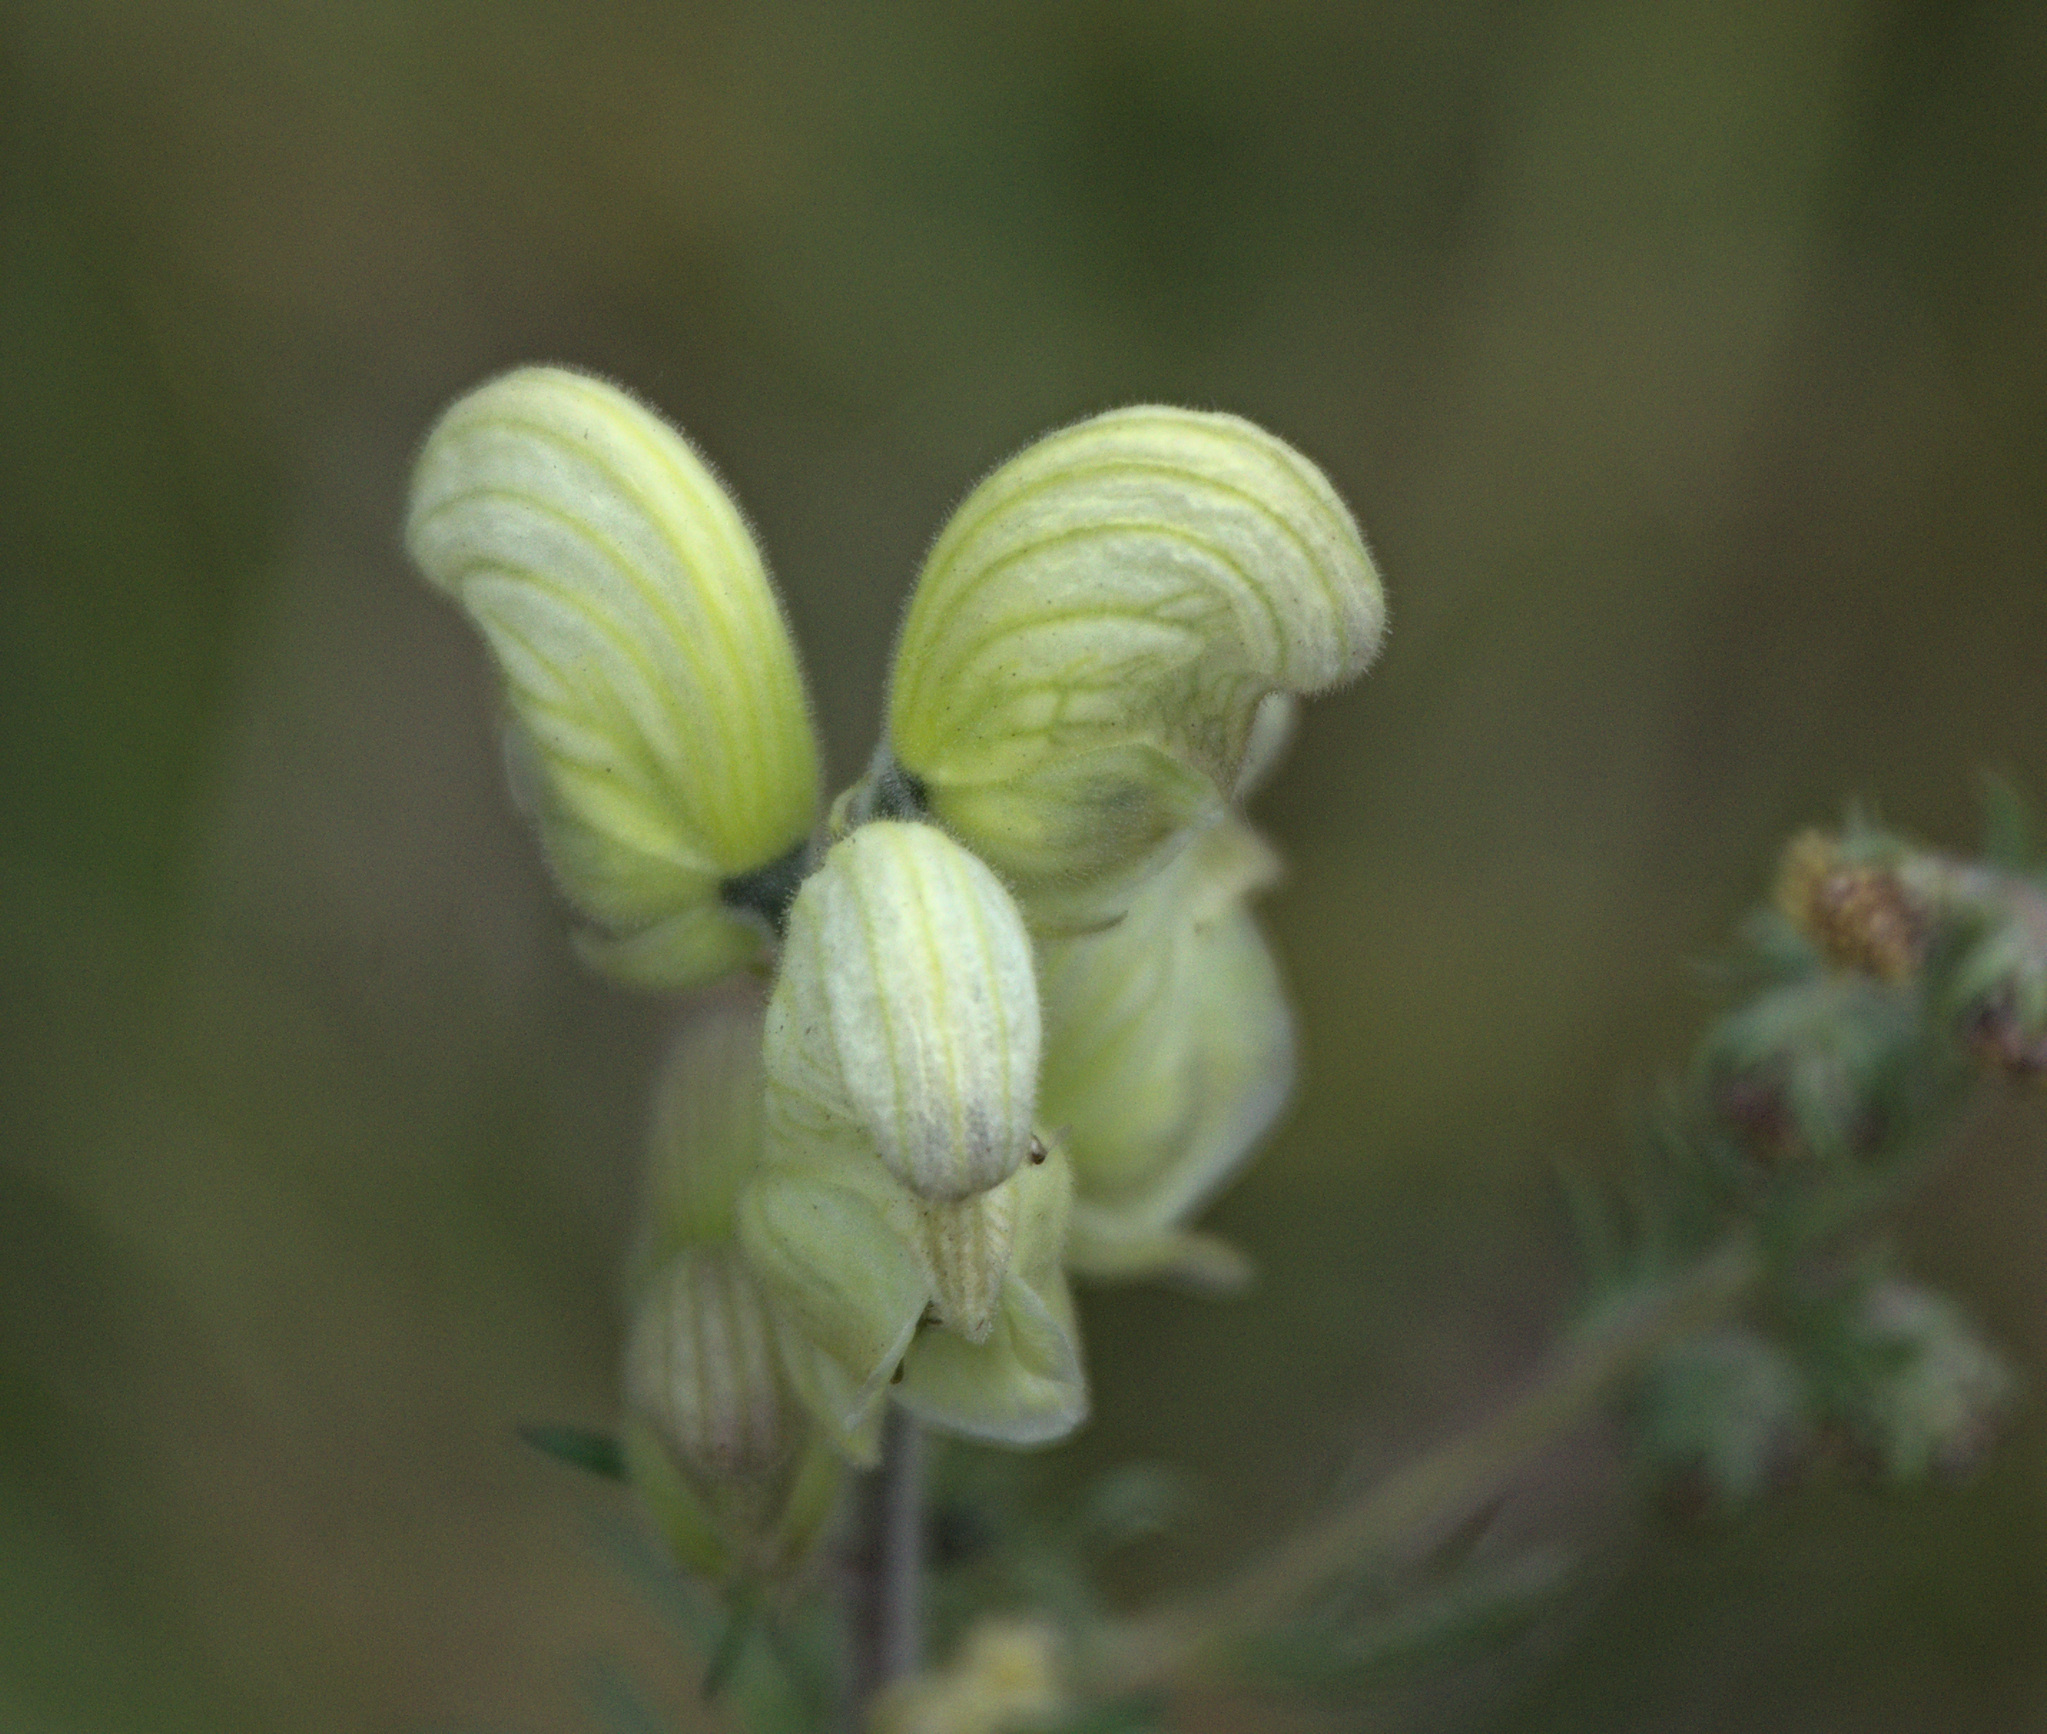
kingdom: Plantae
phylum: Tracheophyta
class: Magnoliopsida
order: Ranunculales
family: Ranunculaceae
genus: Aconitum
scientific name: Aconitum anthora
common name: Yellow monkshood
